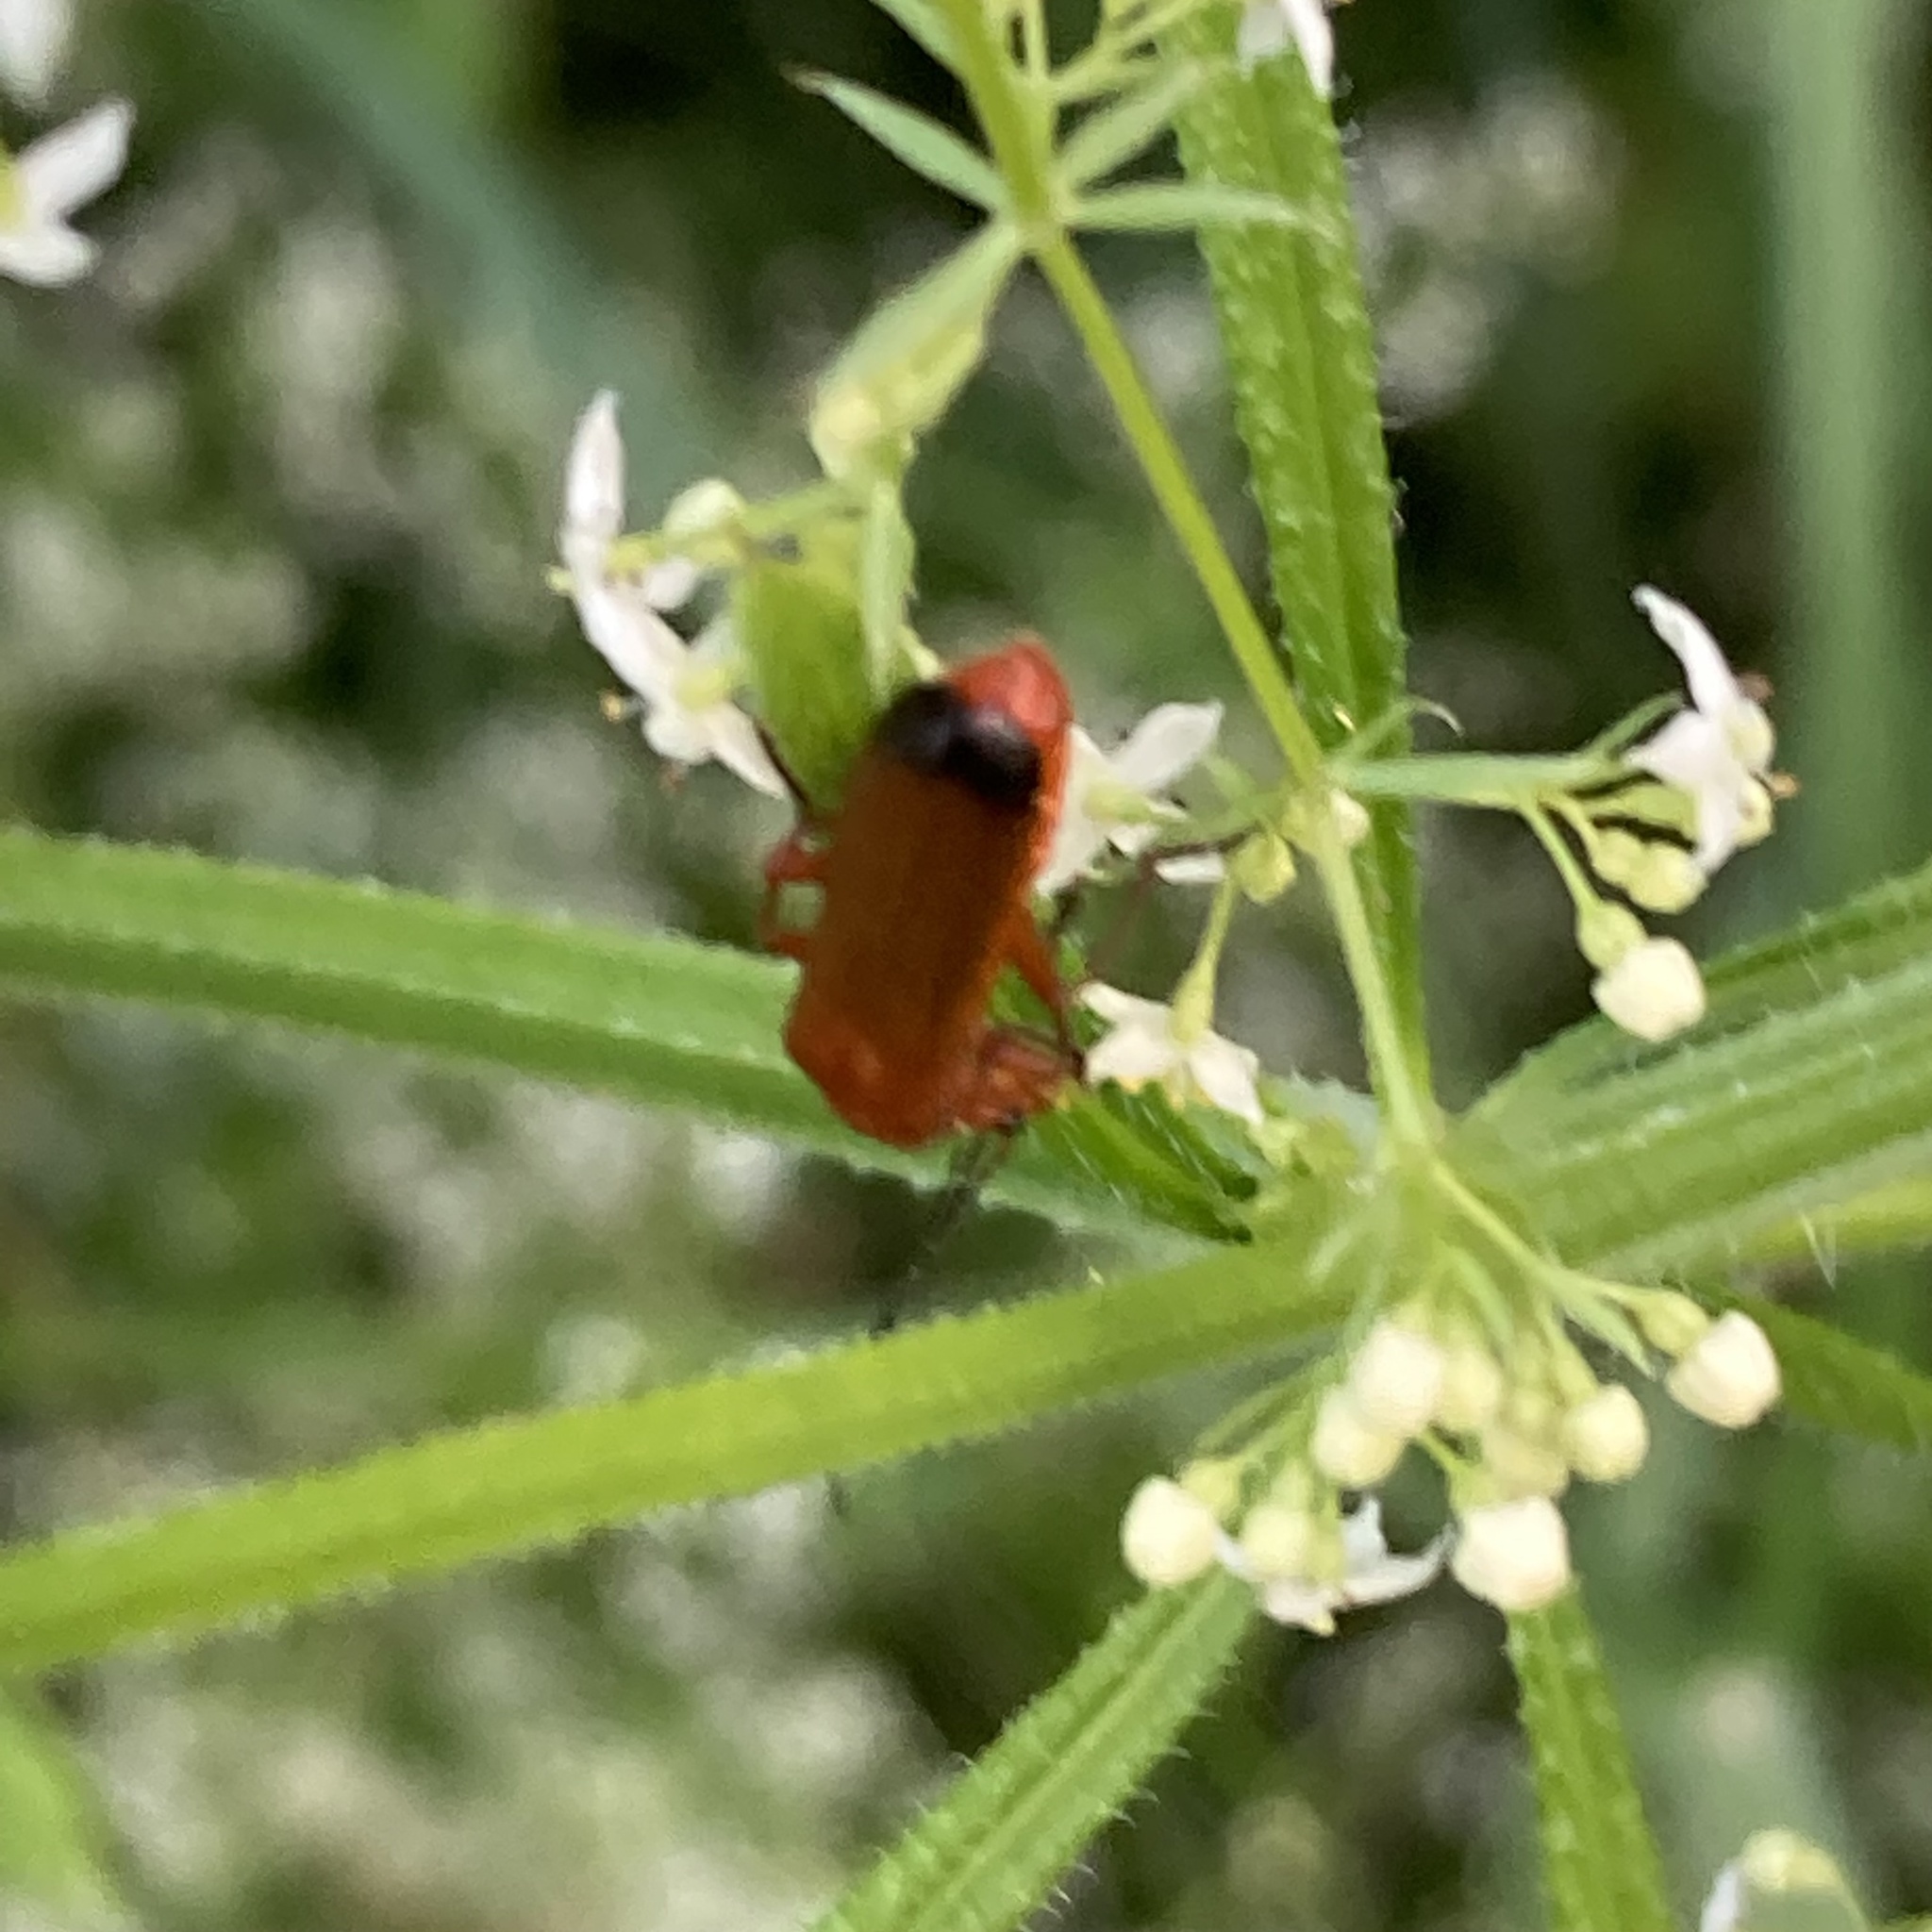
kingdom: Animalia
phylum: Arthropoda
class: Insecta
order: Coleoptera
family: Cantharidae
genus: Rhagonycha
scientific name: Rhagonycha fulva
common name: Common red soldier beetle
